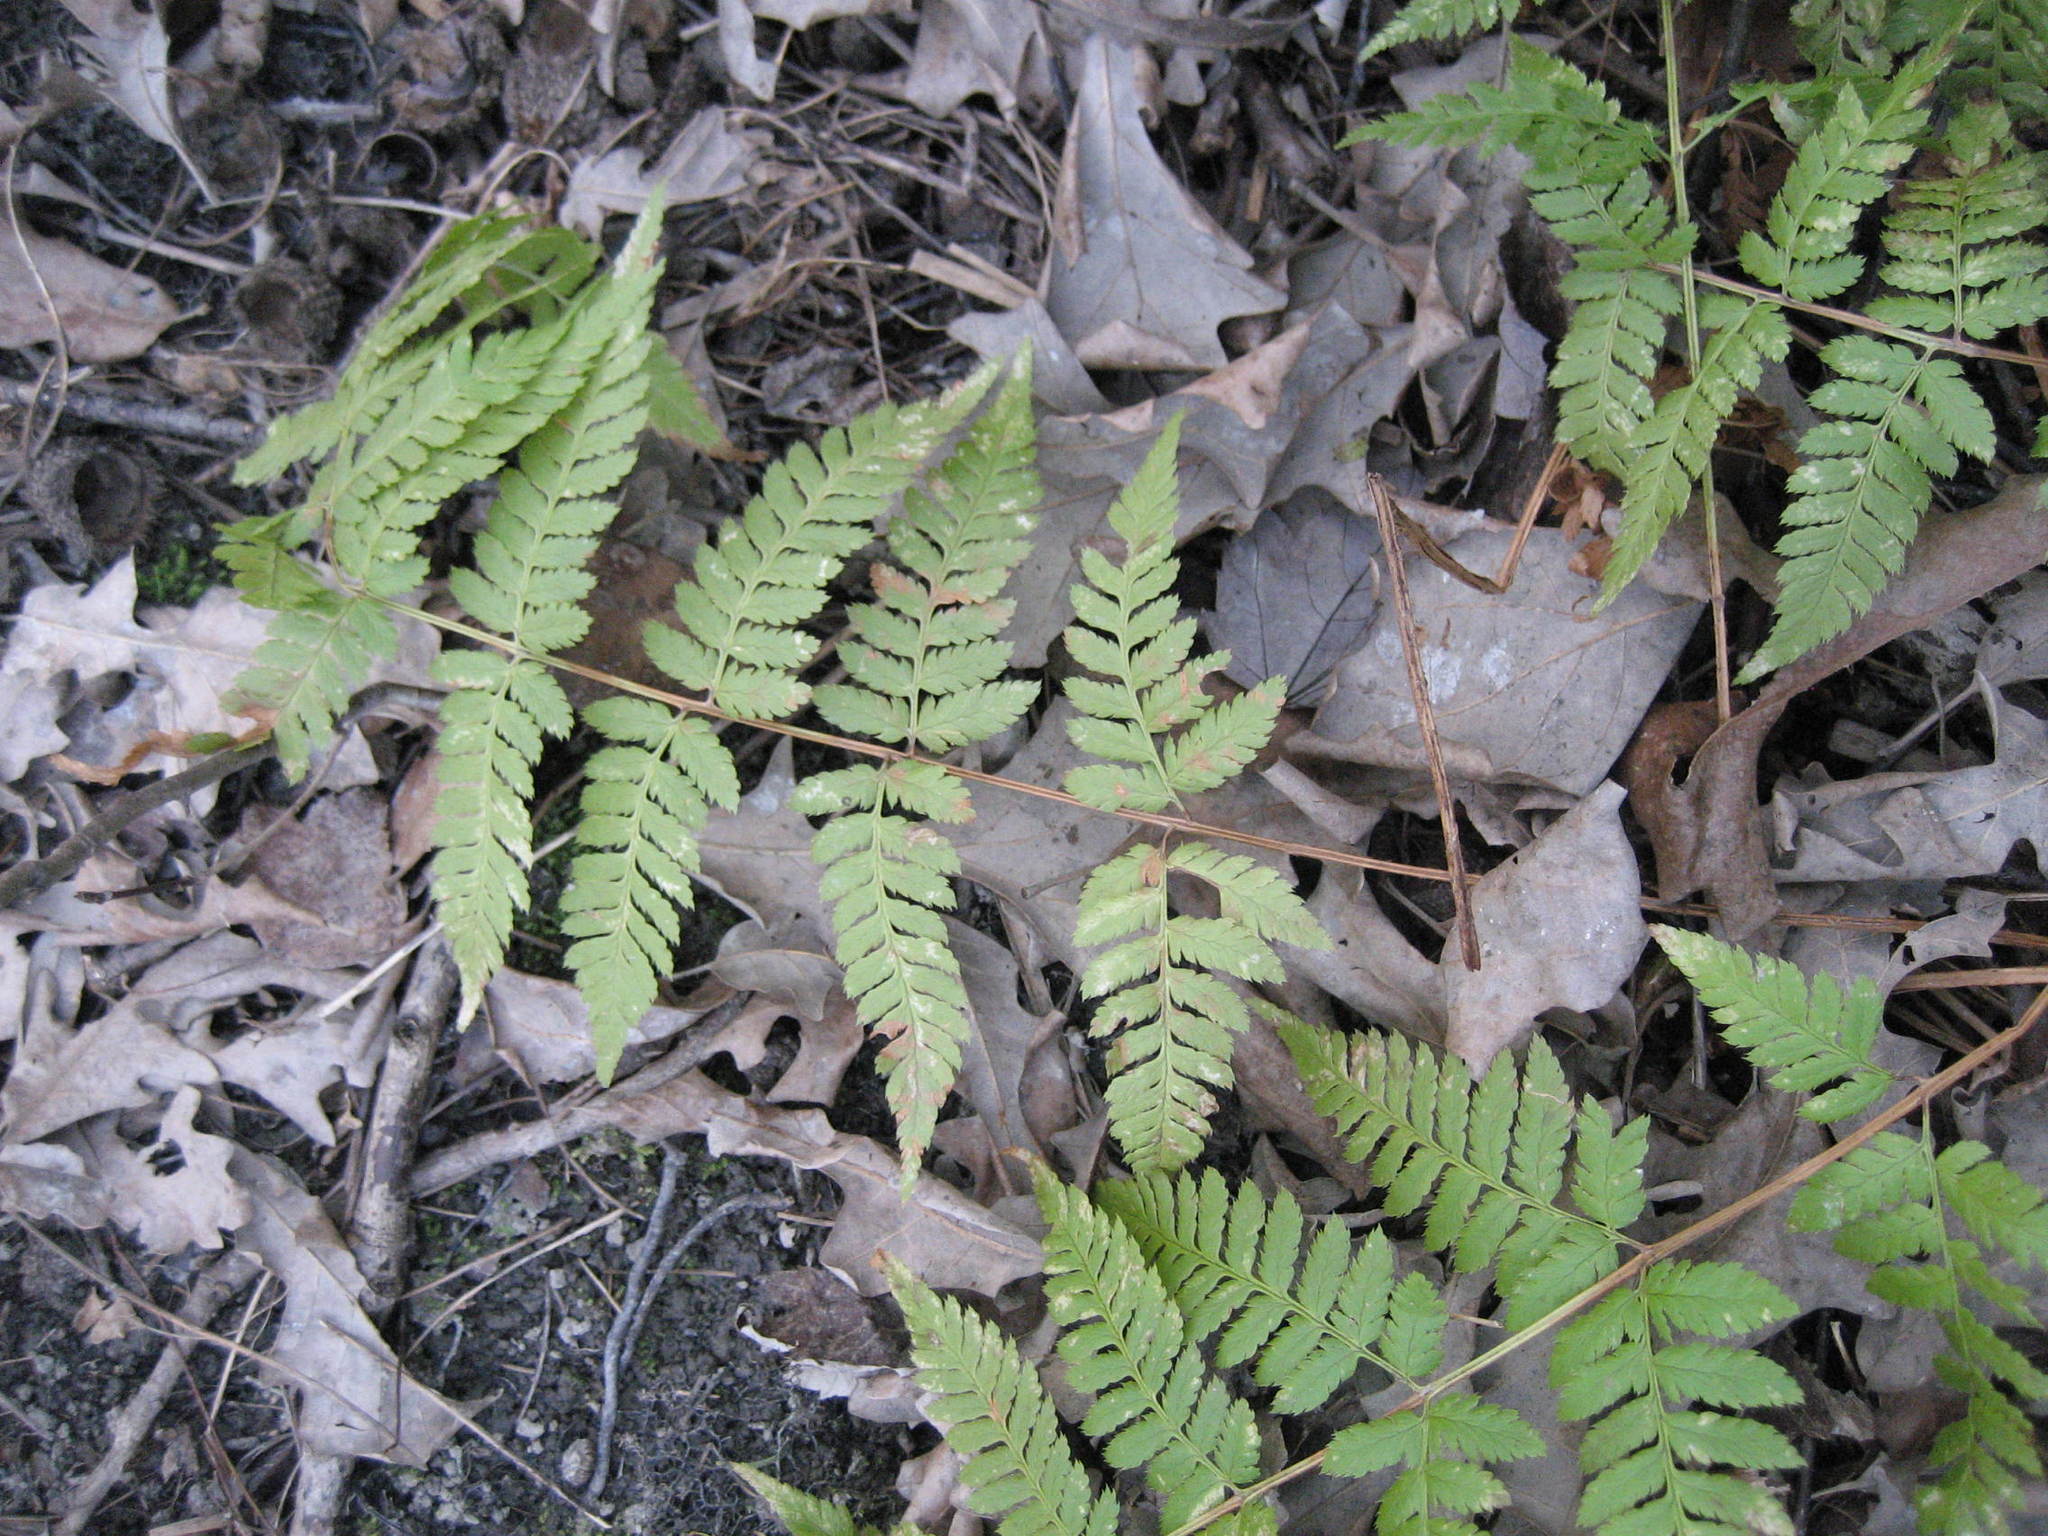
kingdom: Plantae
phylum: Tracheophyta
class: Polypodiopsida
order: Polypodiales
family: Dryopteridaceae
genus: Dryopteris
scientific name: Dryopteris carthusiana
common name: Narrow buckler-fern
